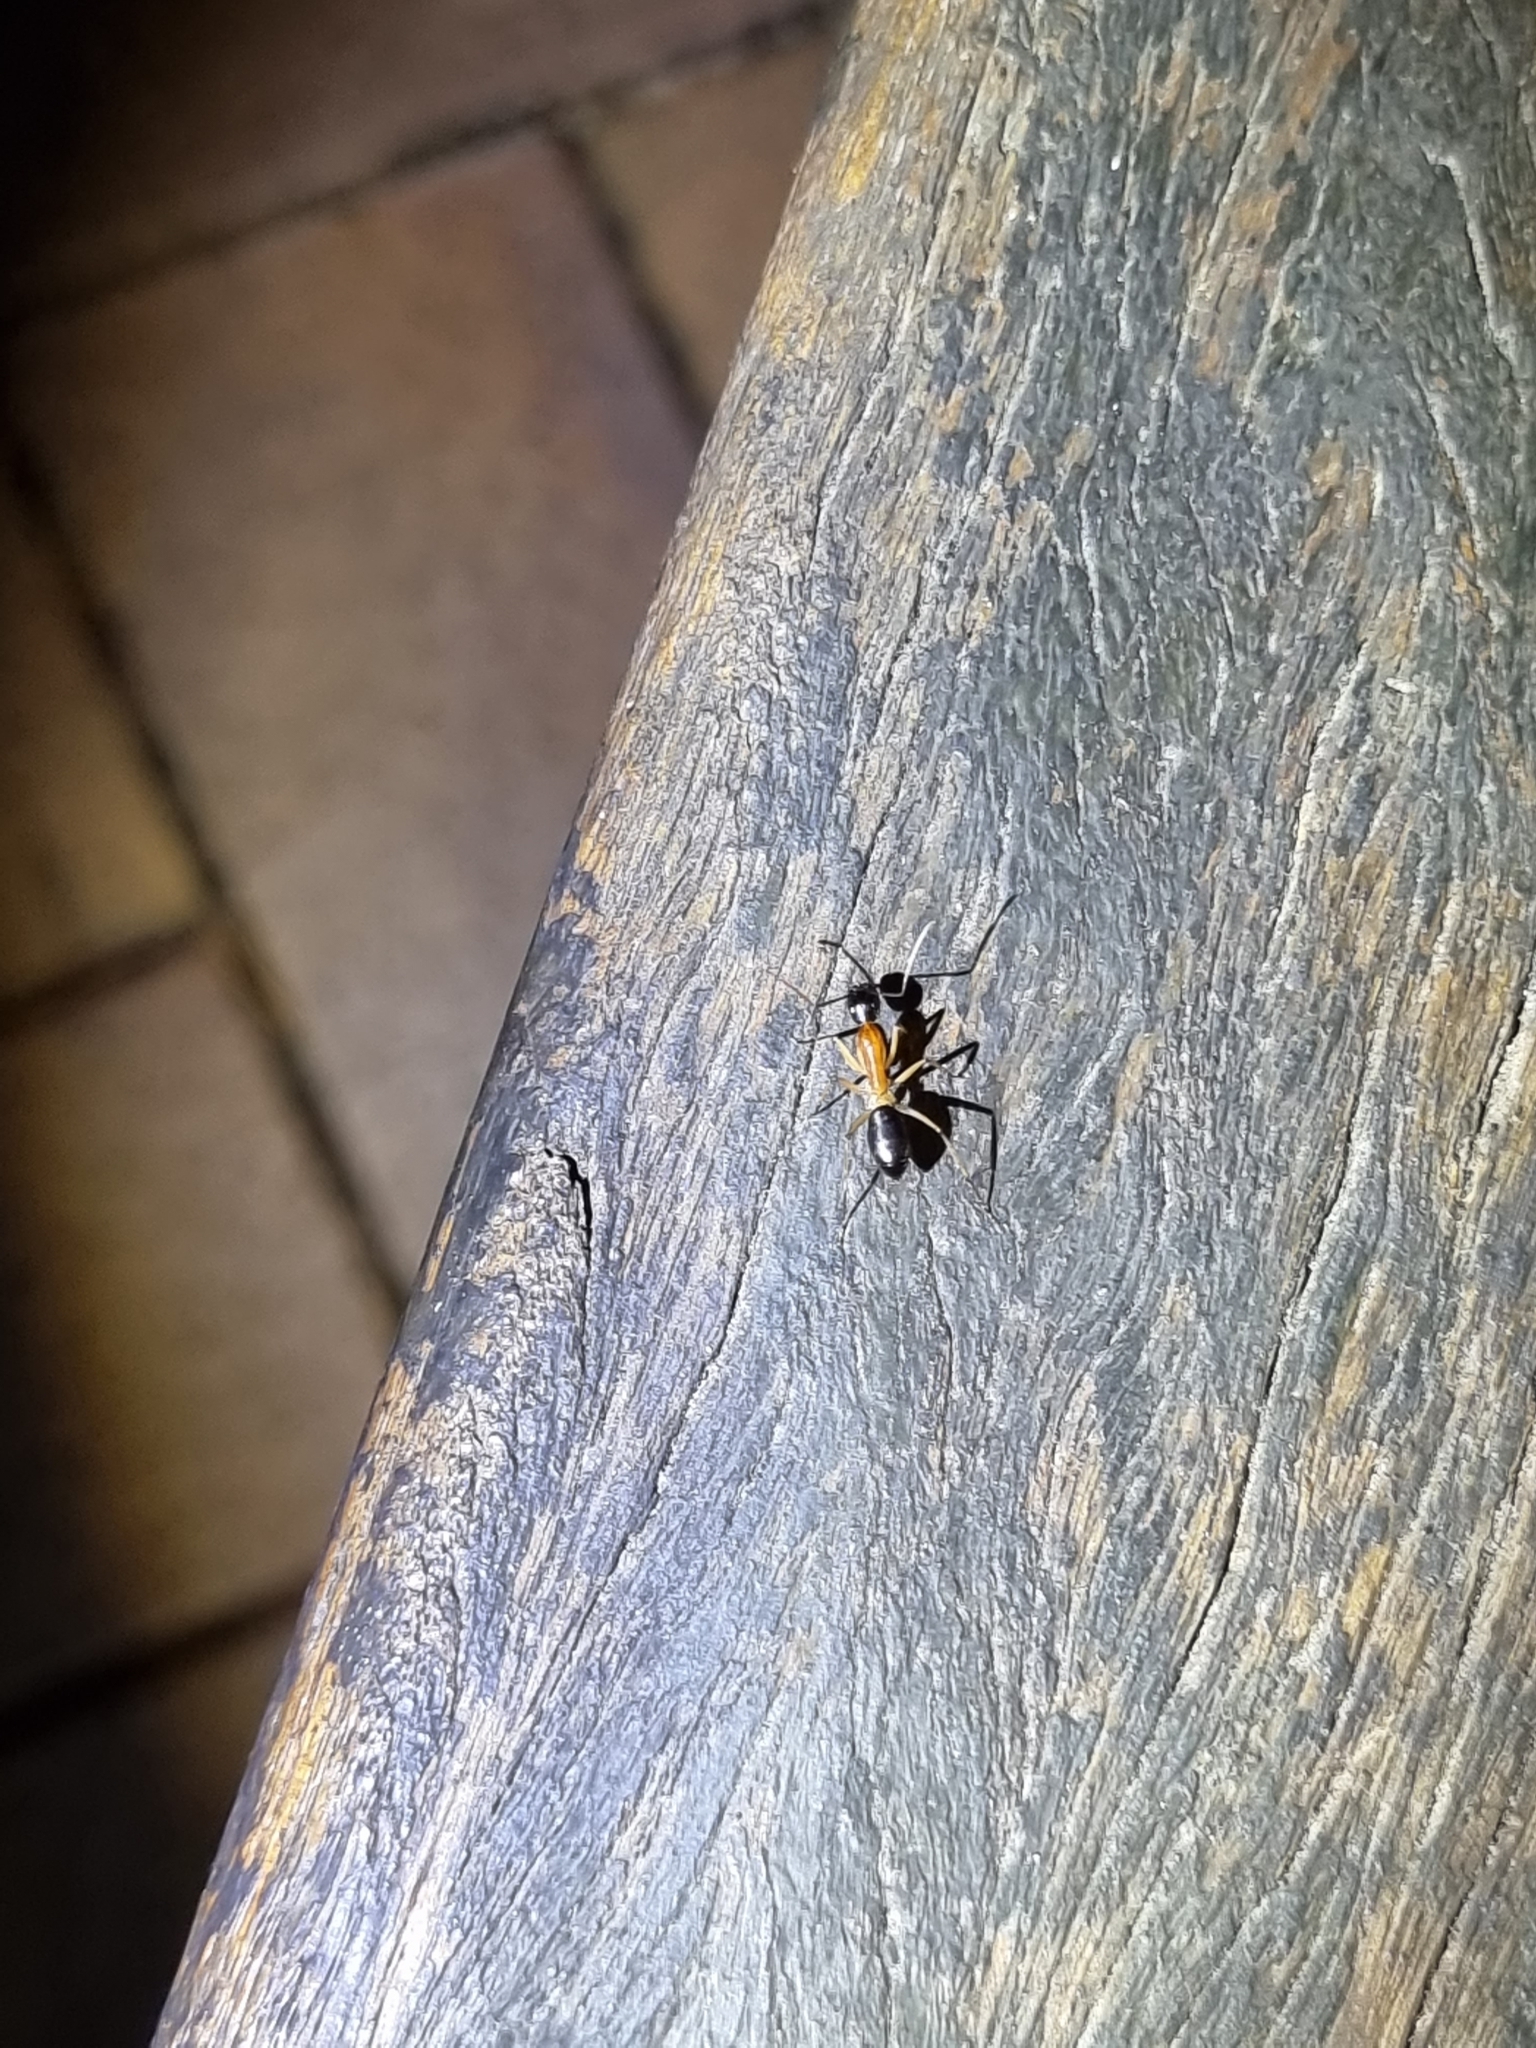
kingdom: Animalia
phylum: Arthropoda
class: Insecta
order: Hymenoptera
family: Formicidae
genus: Camponotus
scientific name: Camponotus nigriceps
